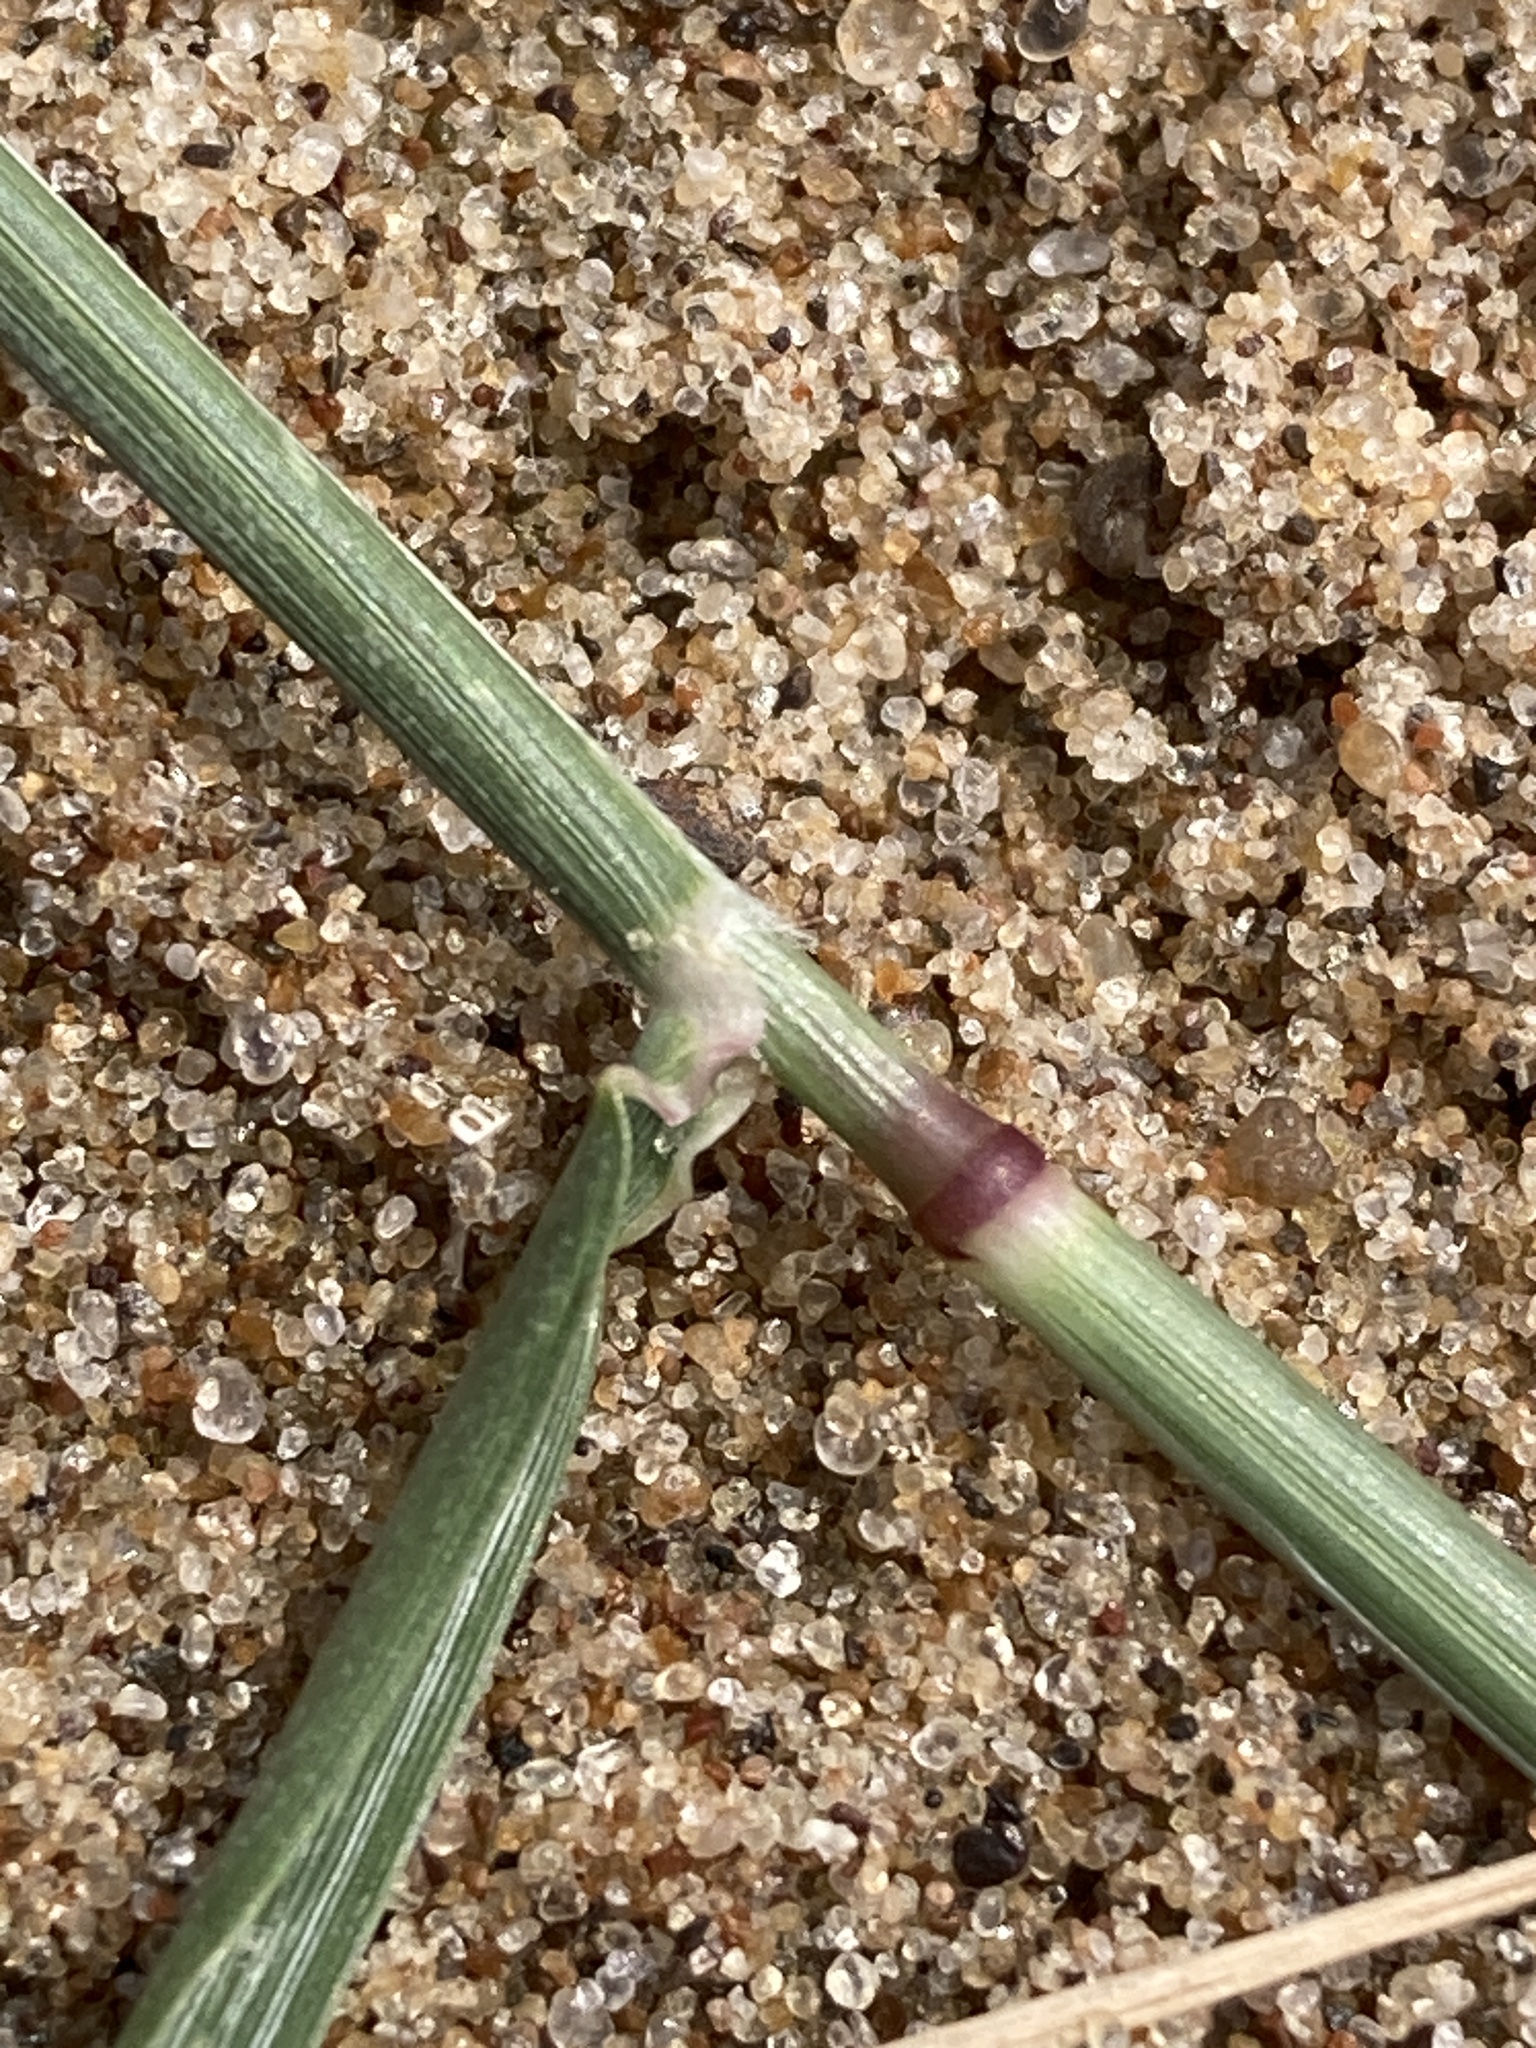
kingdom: Plantae
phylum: Tracheophyta
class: Liliopsida
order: Poales
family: Poaceae
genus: Sporobolus
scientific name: Sporobolus alopecuroides
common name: Foxtail pricklegrass
